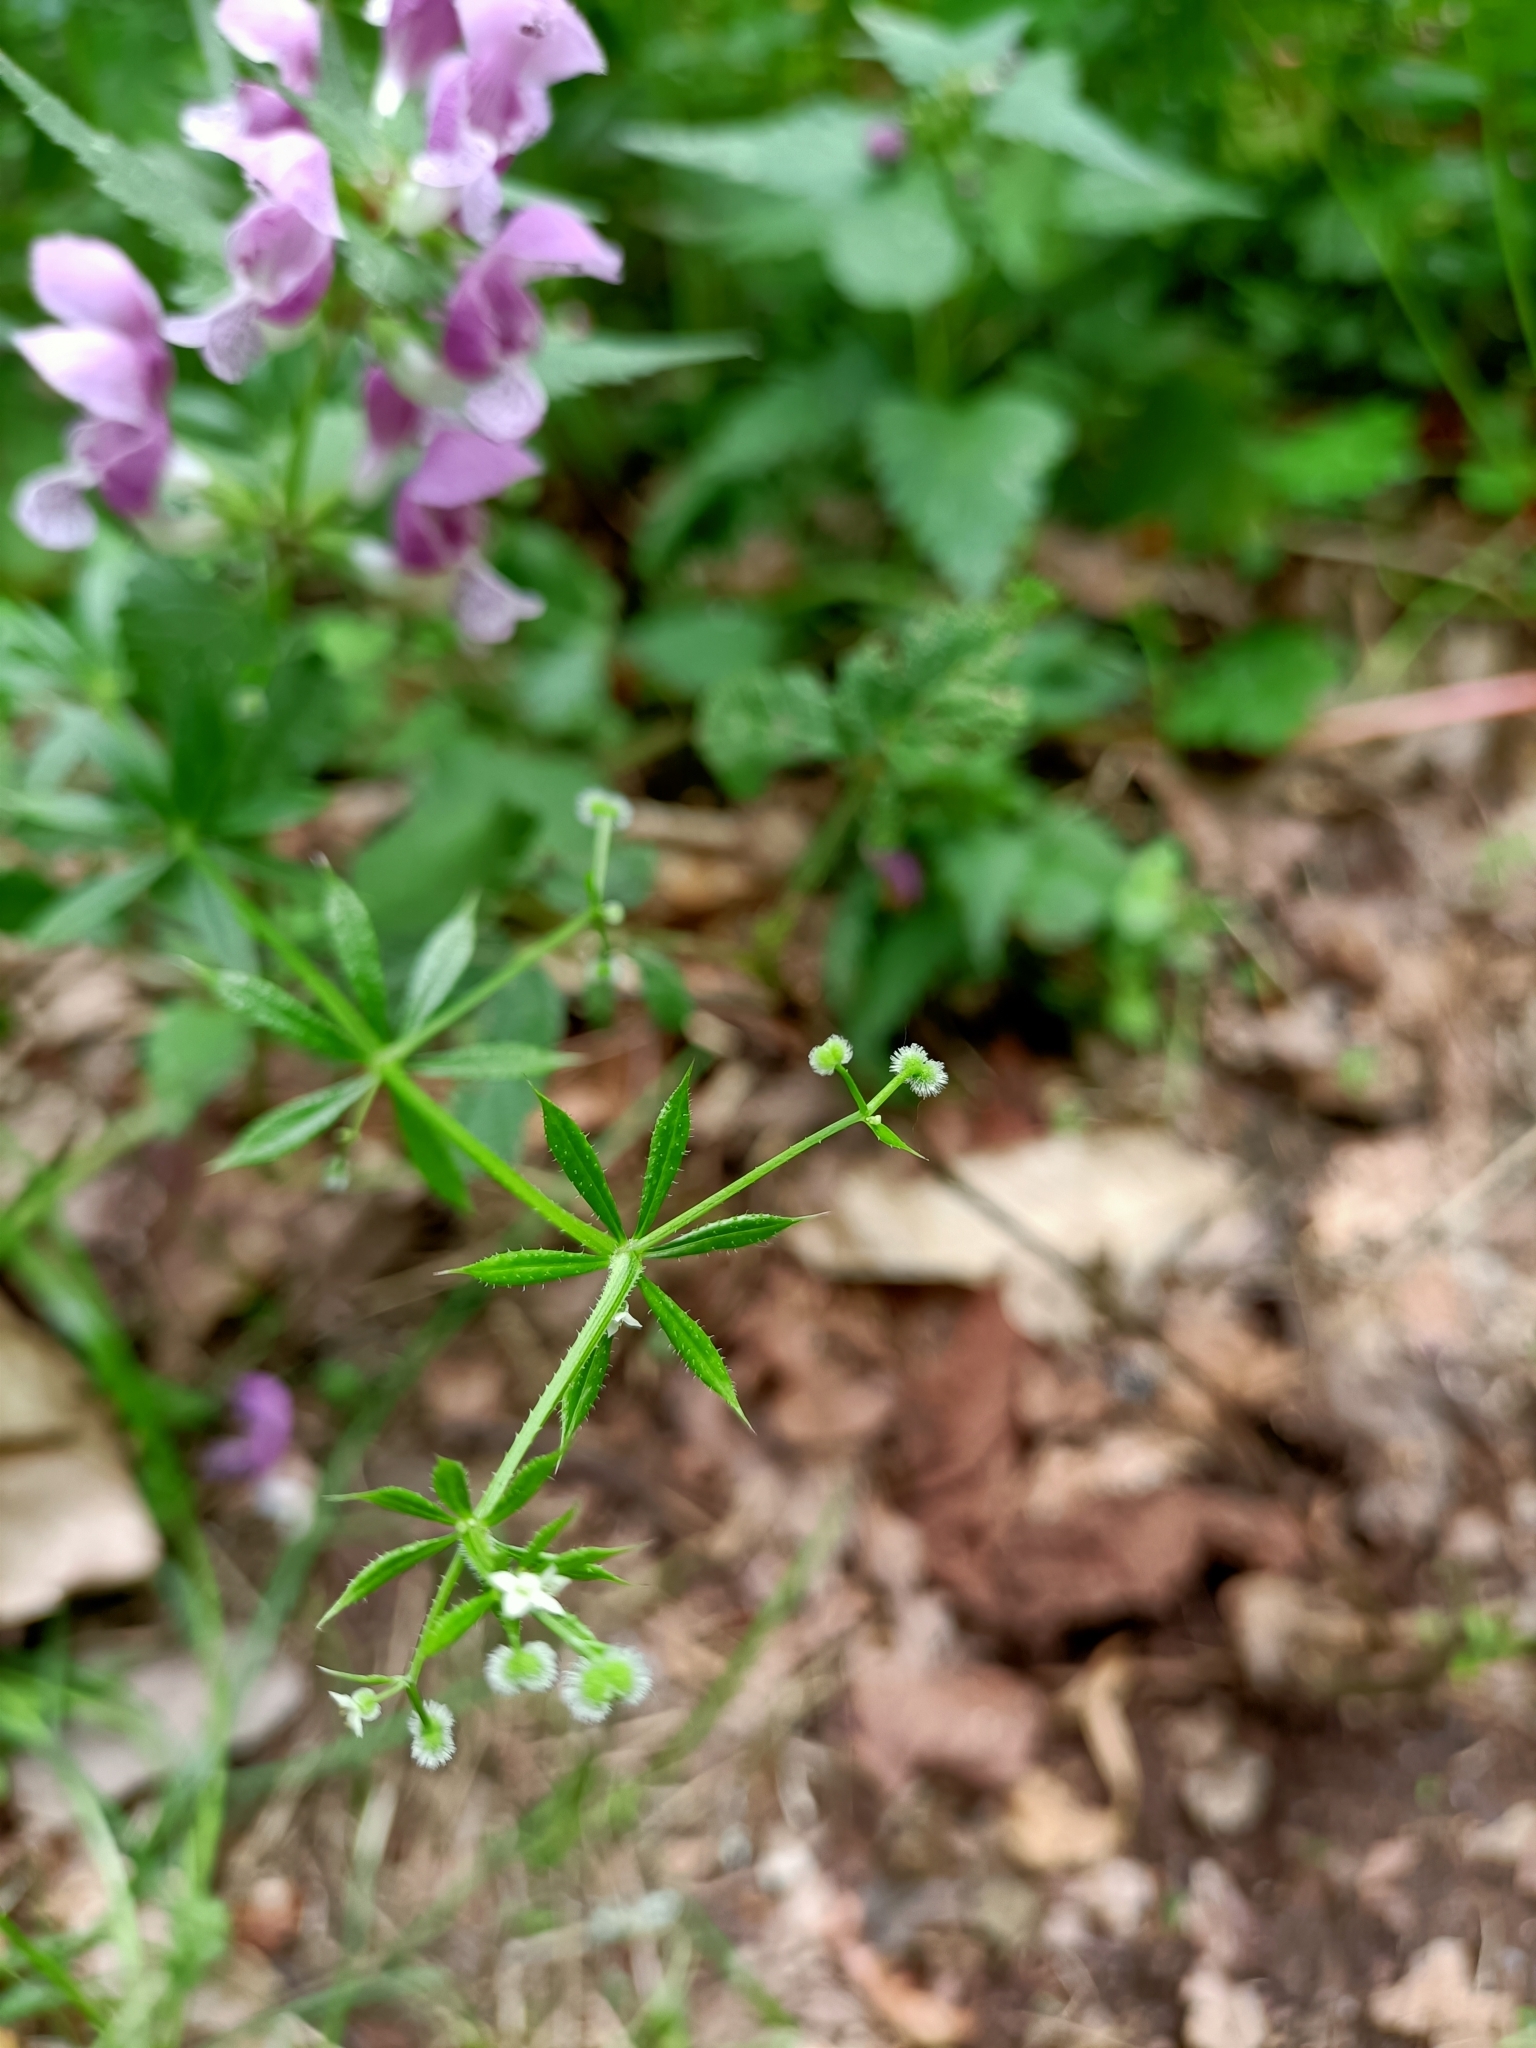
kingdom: Plantae
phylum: Tracheophyta
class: Magnoliopsida
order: Gentianales
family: Rubiaceae
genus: Galium
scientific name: Galium aparine
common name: Cleavers
